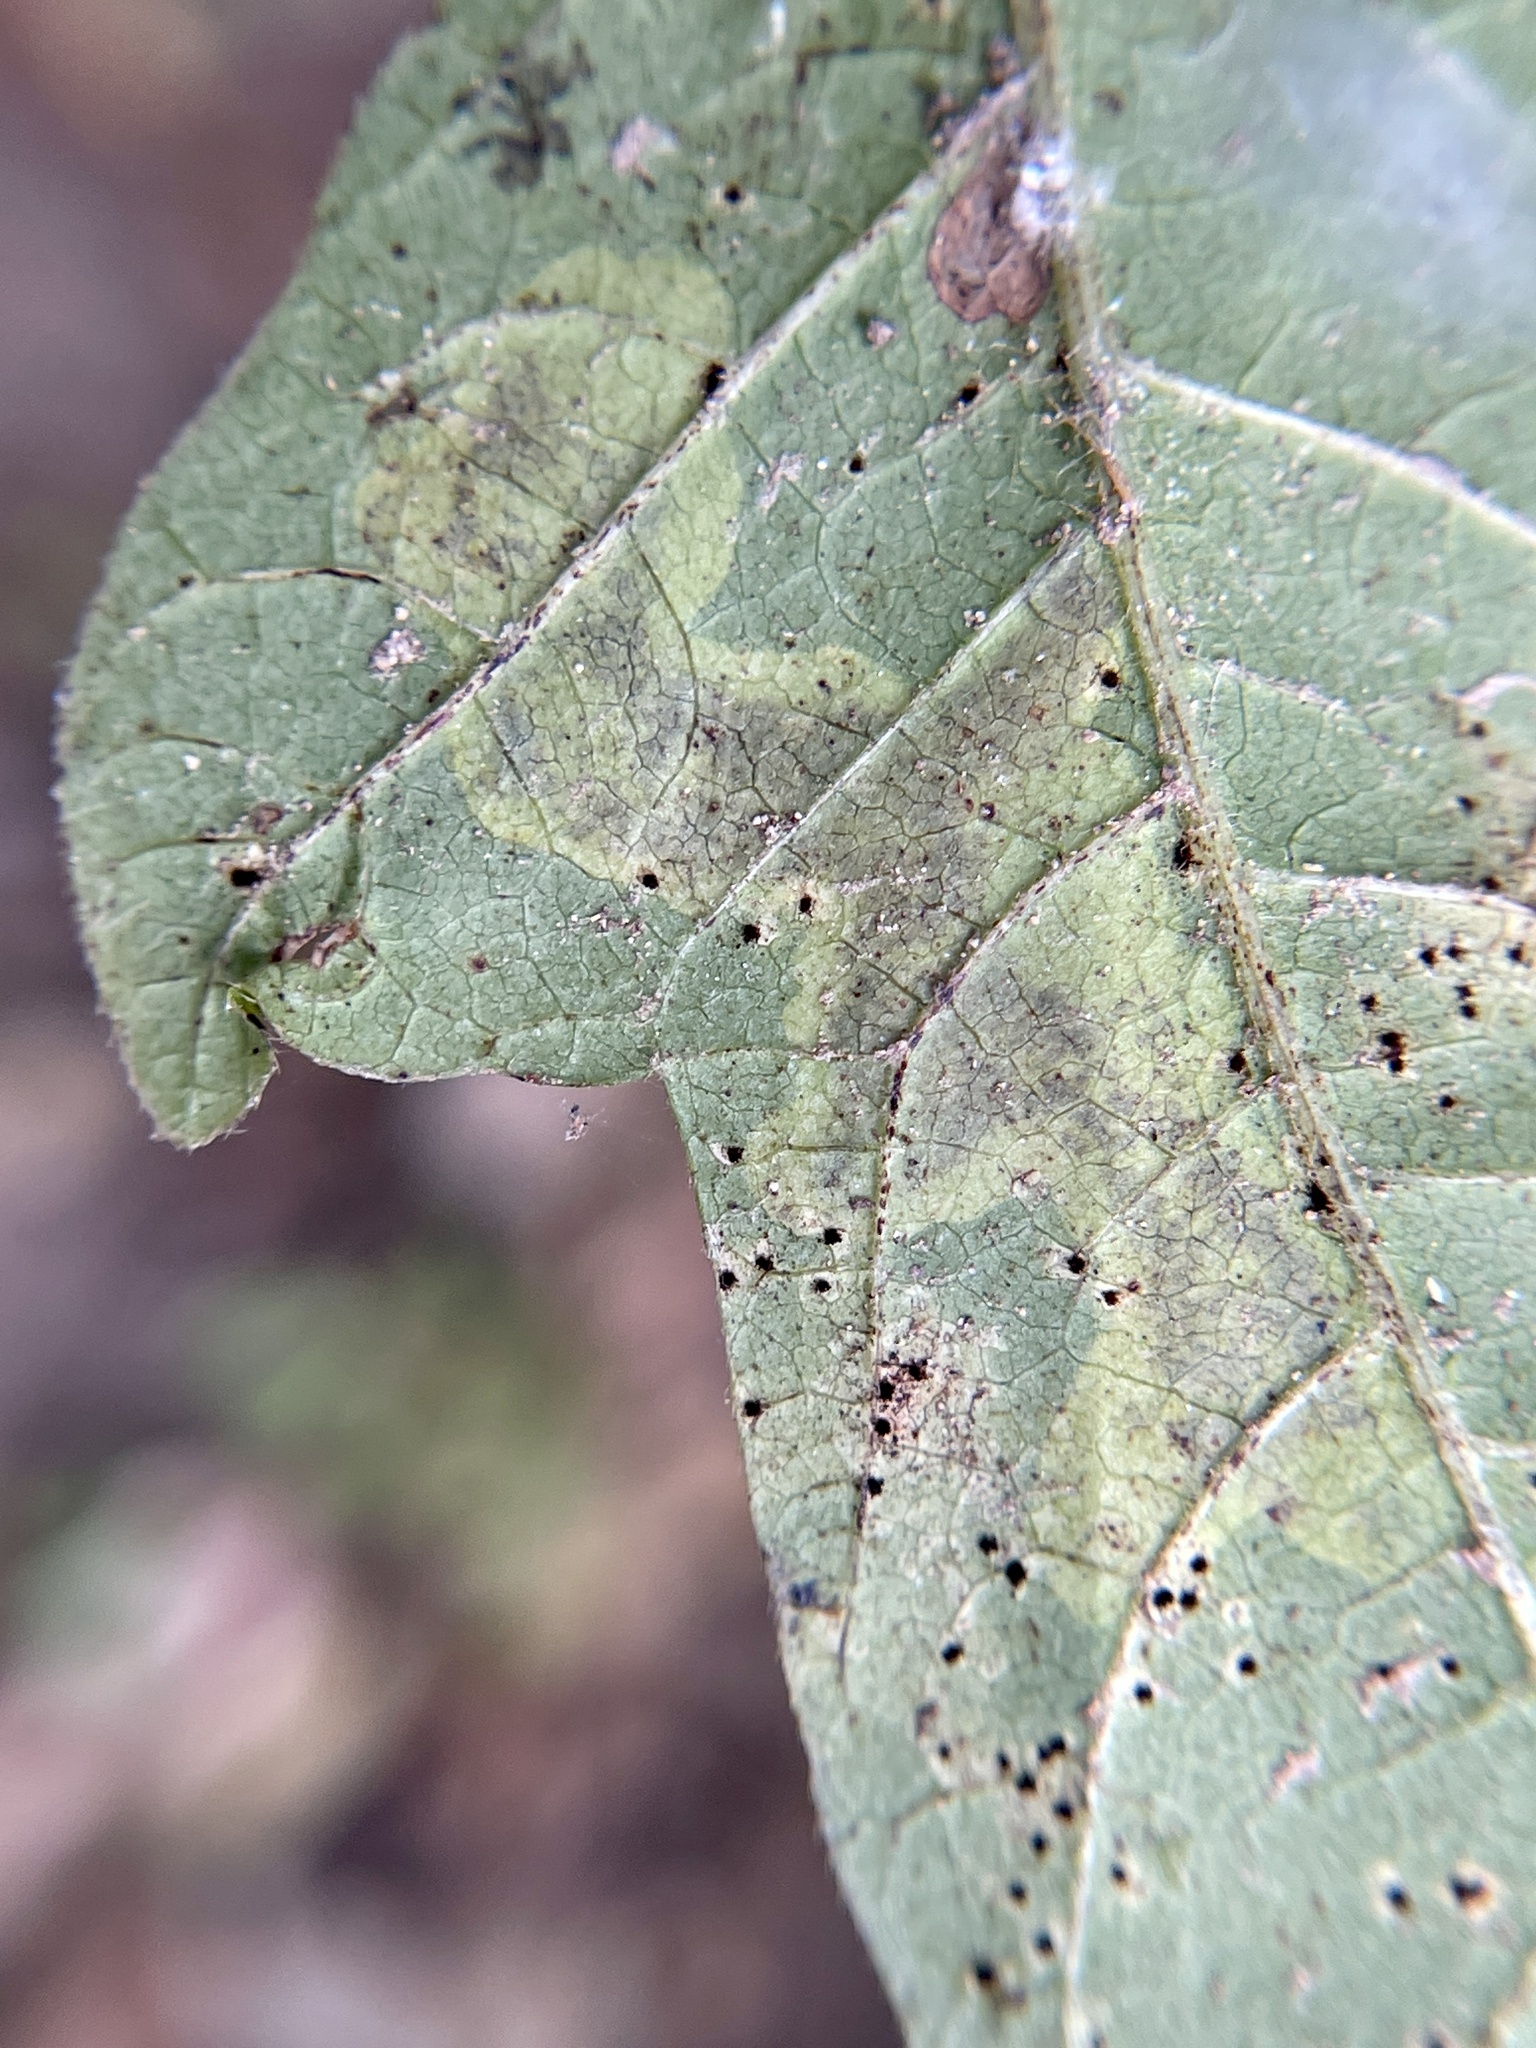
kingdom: Animalia
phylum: Arthropoda
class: Insecta
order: Lepidoptera
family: Gracillariidae
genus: Cameraria
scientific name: Cameraria guttifinitella
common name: Poison ivy leaf-miner moth
